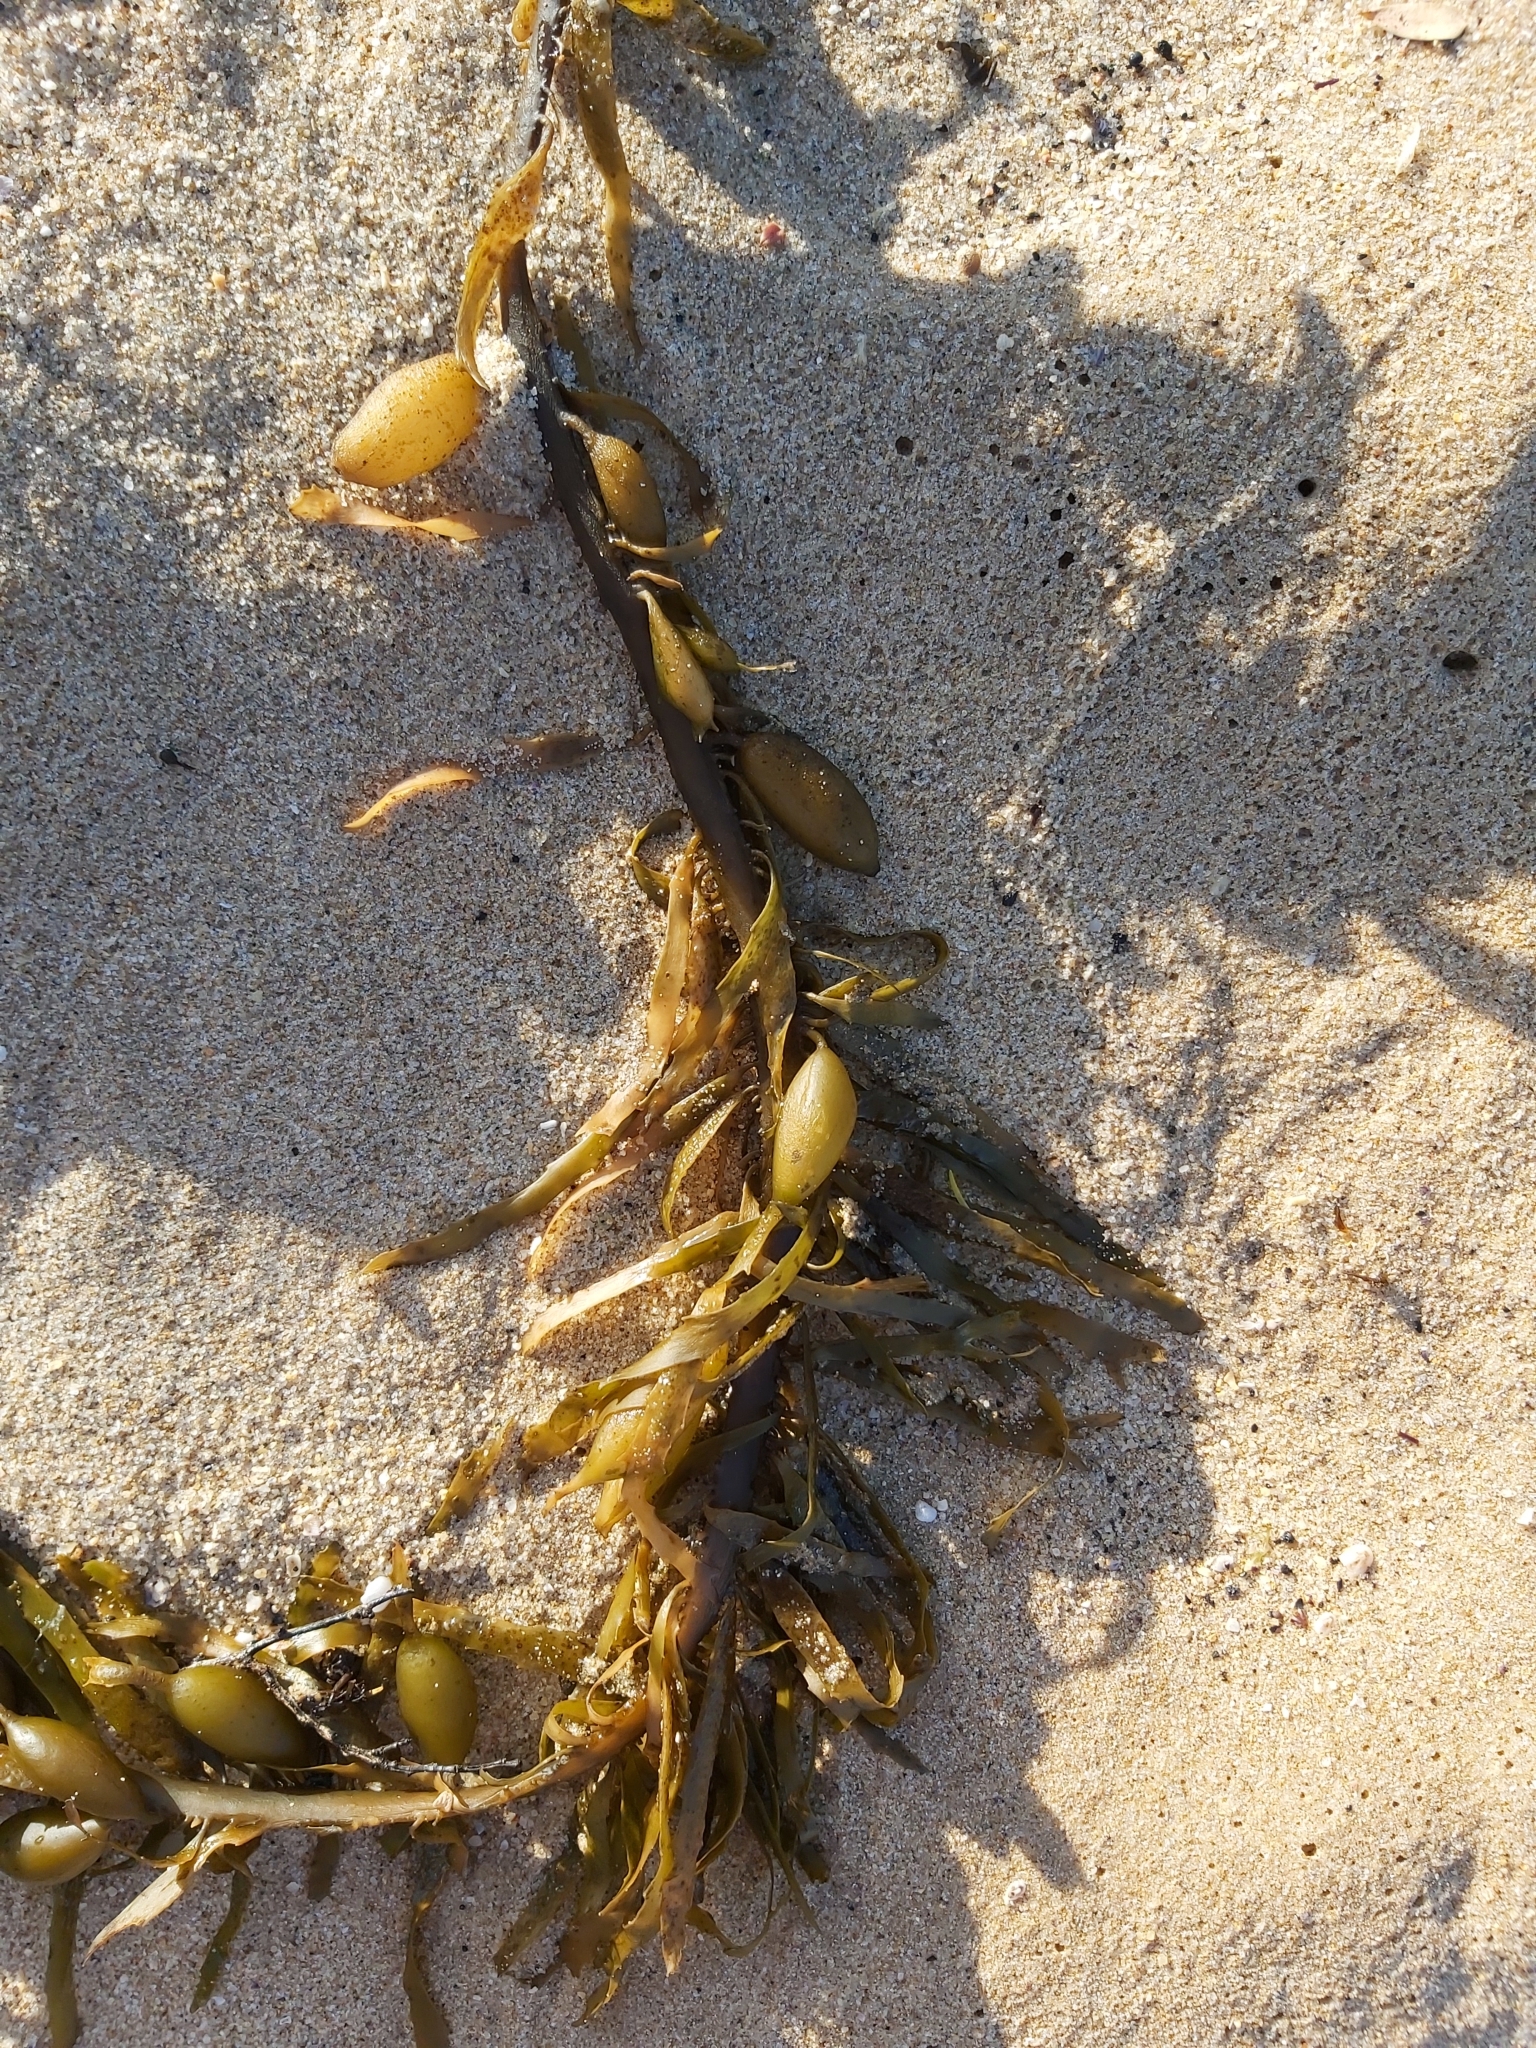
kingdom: Chromista
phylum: Ochrophyta
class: Phaeophyceae
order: Fucales
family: Seirococcaceae
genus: Phyllospora
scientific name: Phyllospora
